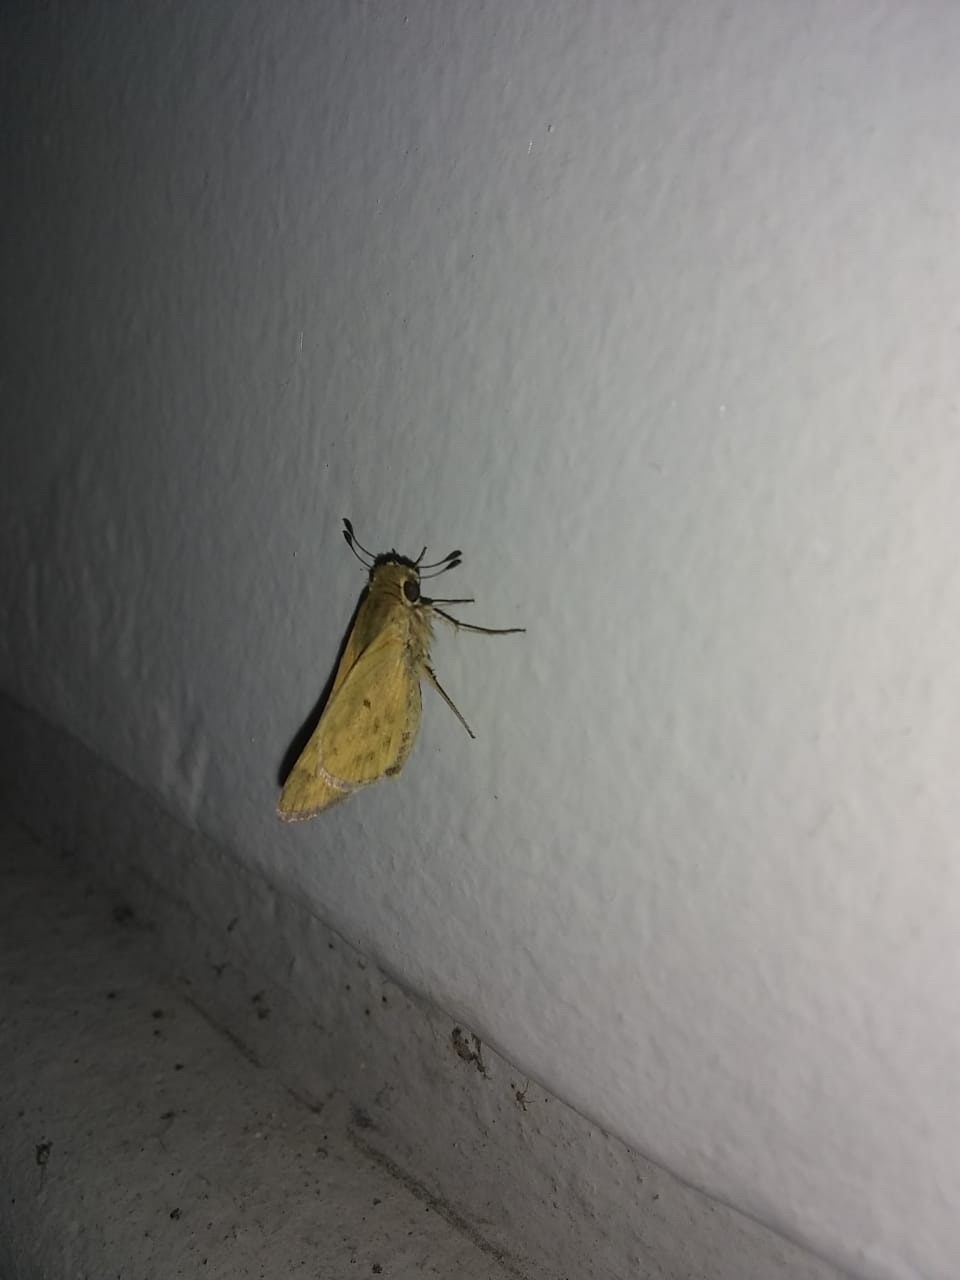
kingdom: Animalia
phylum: Arthropoda
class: Insecta
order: Lepidoptera
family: Hesperiidae
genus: Hylephila
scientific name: Hylephila phyleus
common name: Fiery skipper
